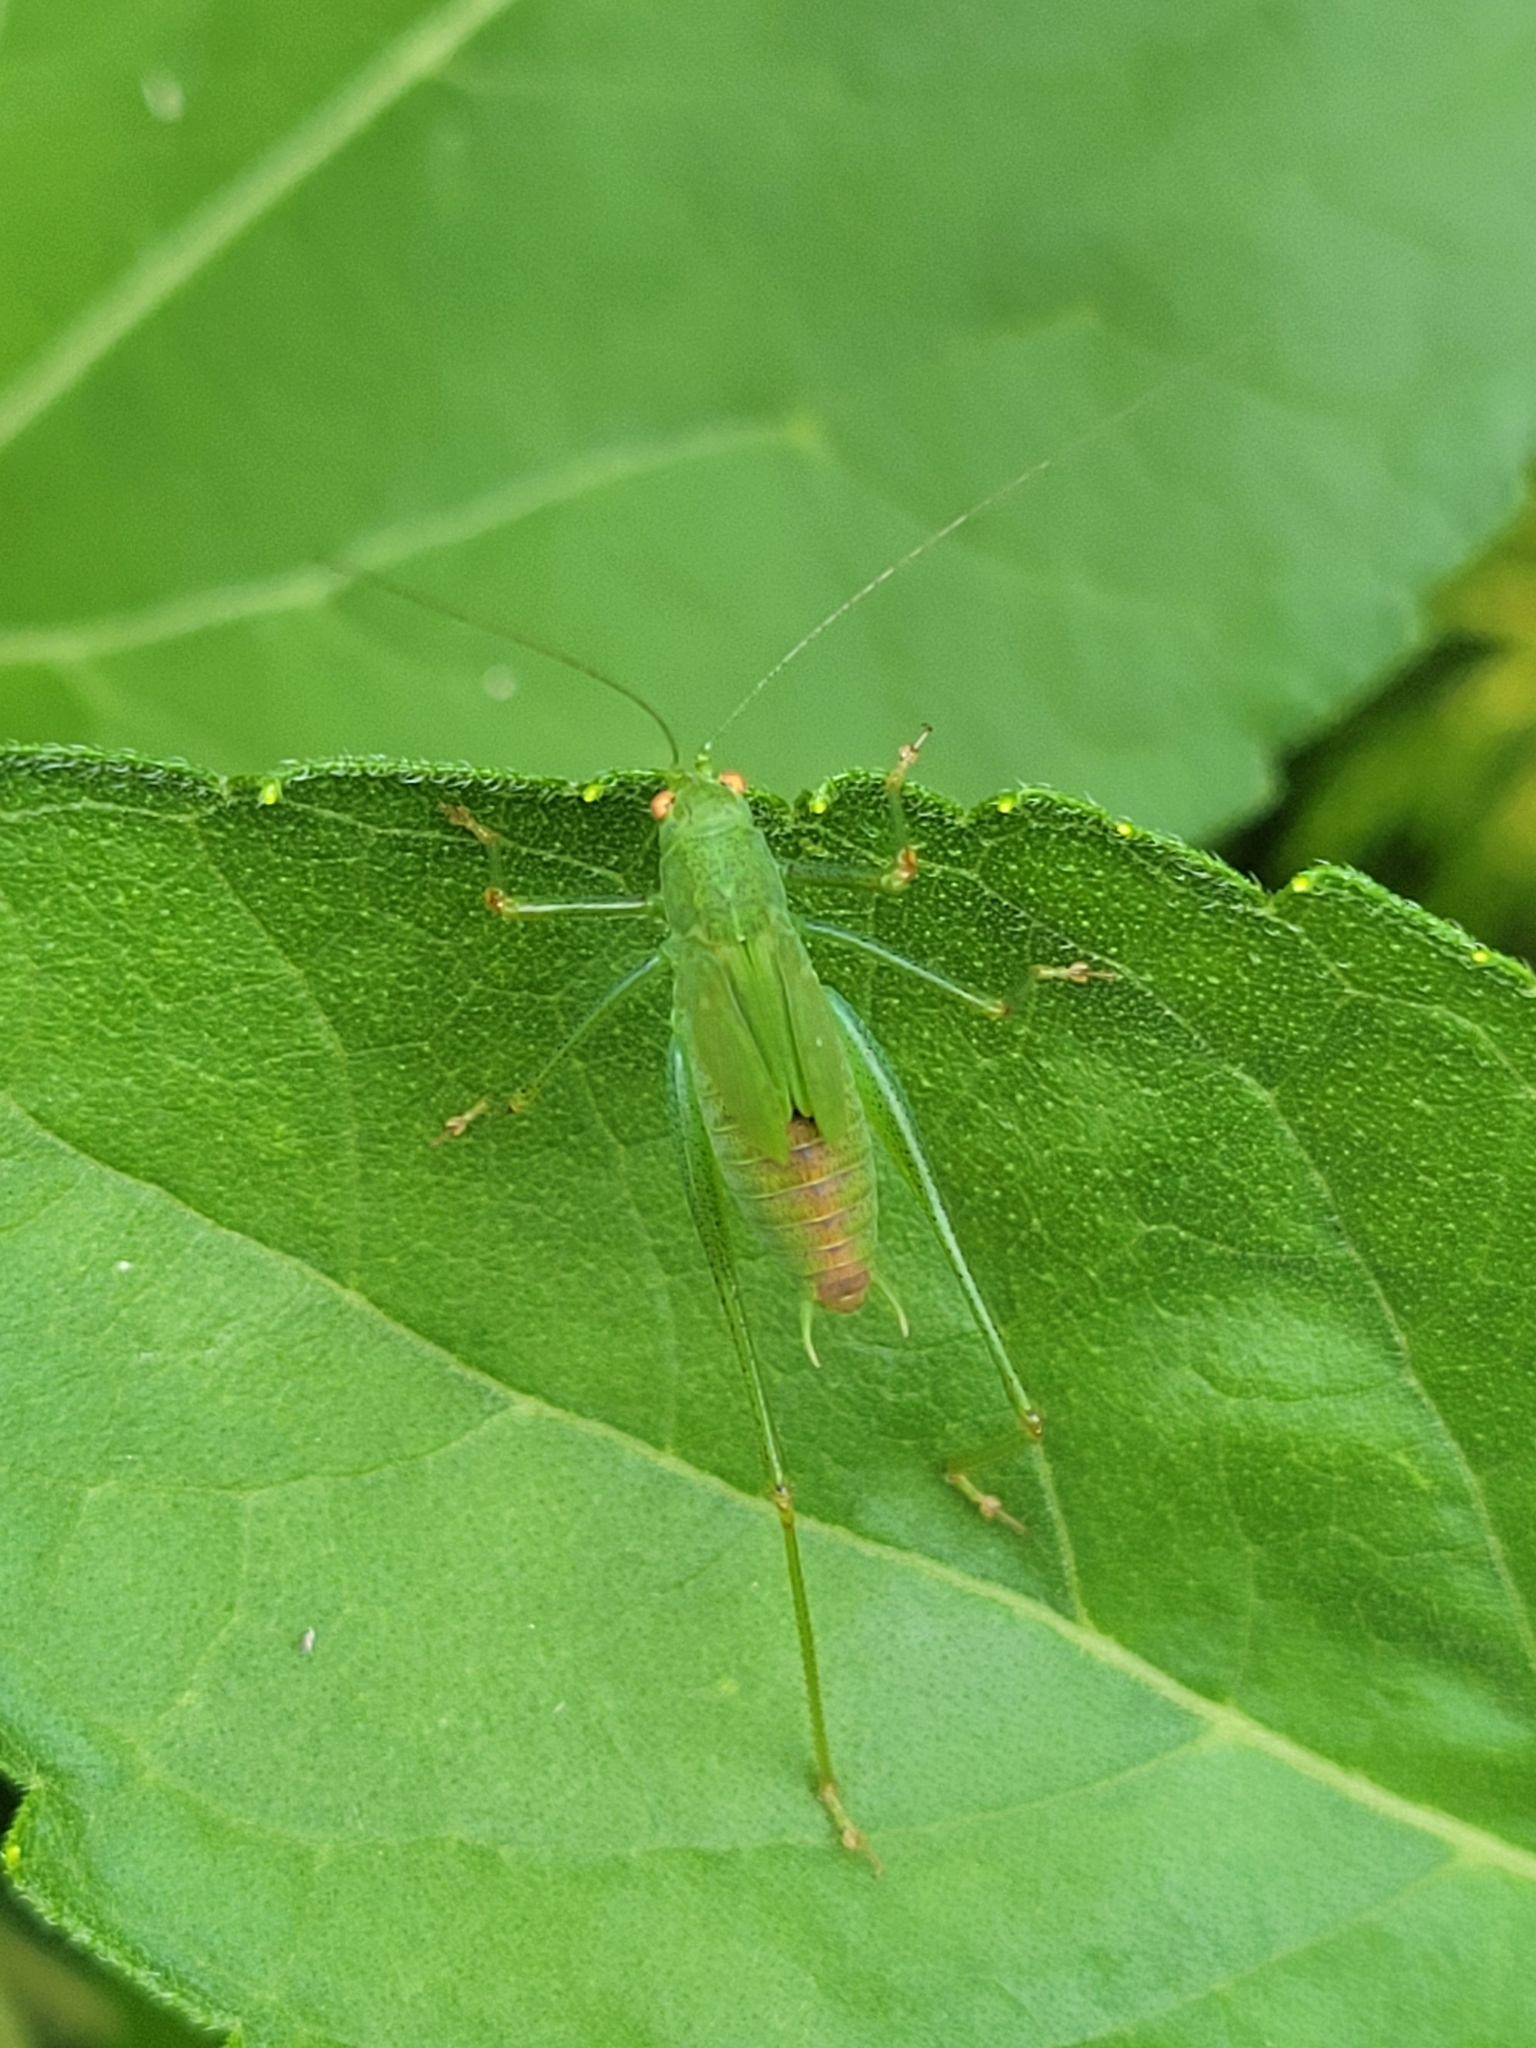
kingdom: Animalia
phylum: Arthropoda
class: Insecta
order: Orthoptera
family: Tettigoniidae
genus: Phaneroptera
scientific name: Phaneroptera nana
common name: Southern sickle bush-cricket
